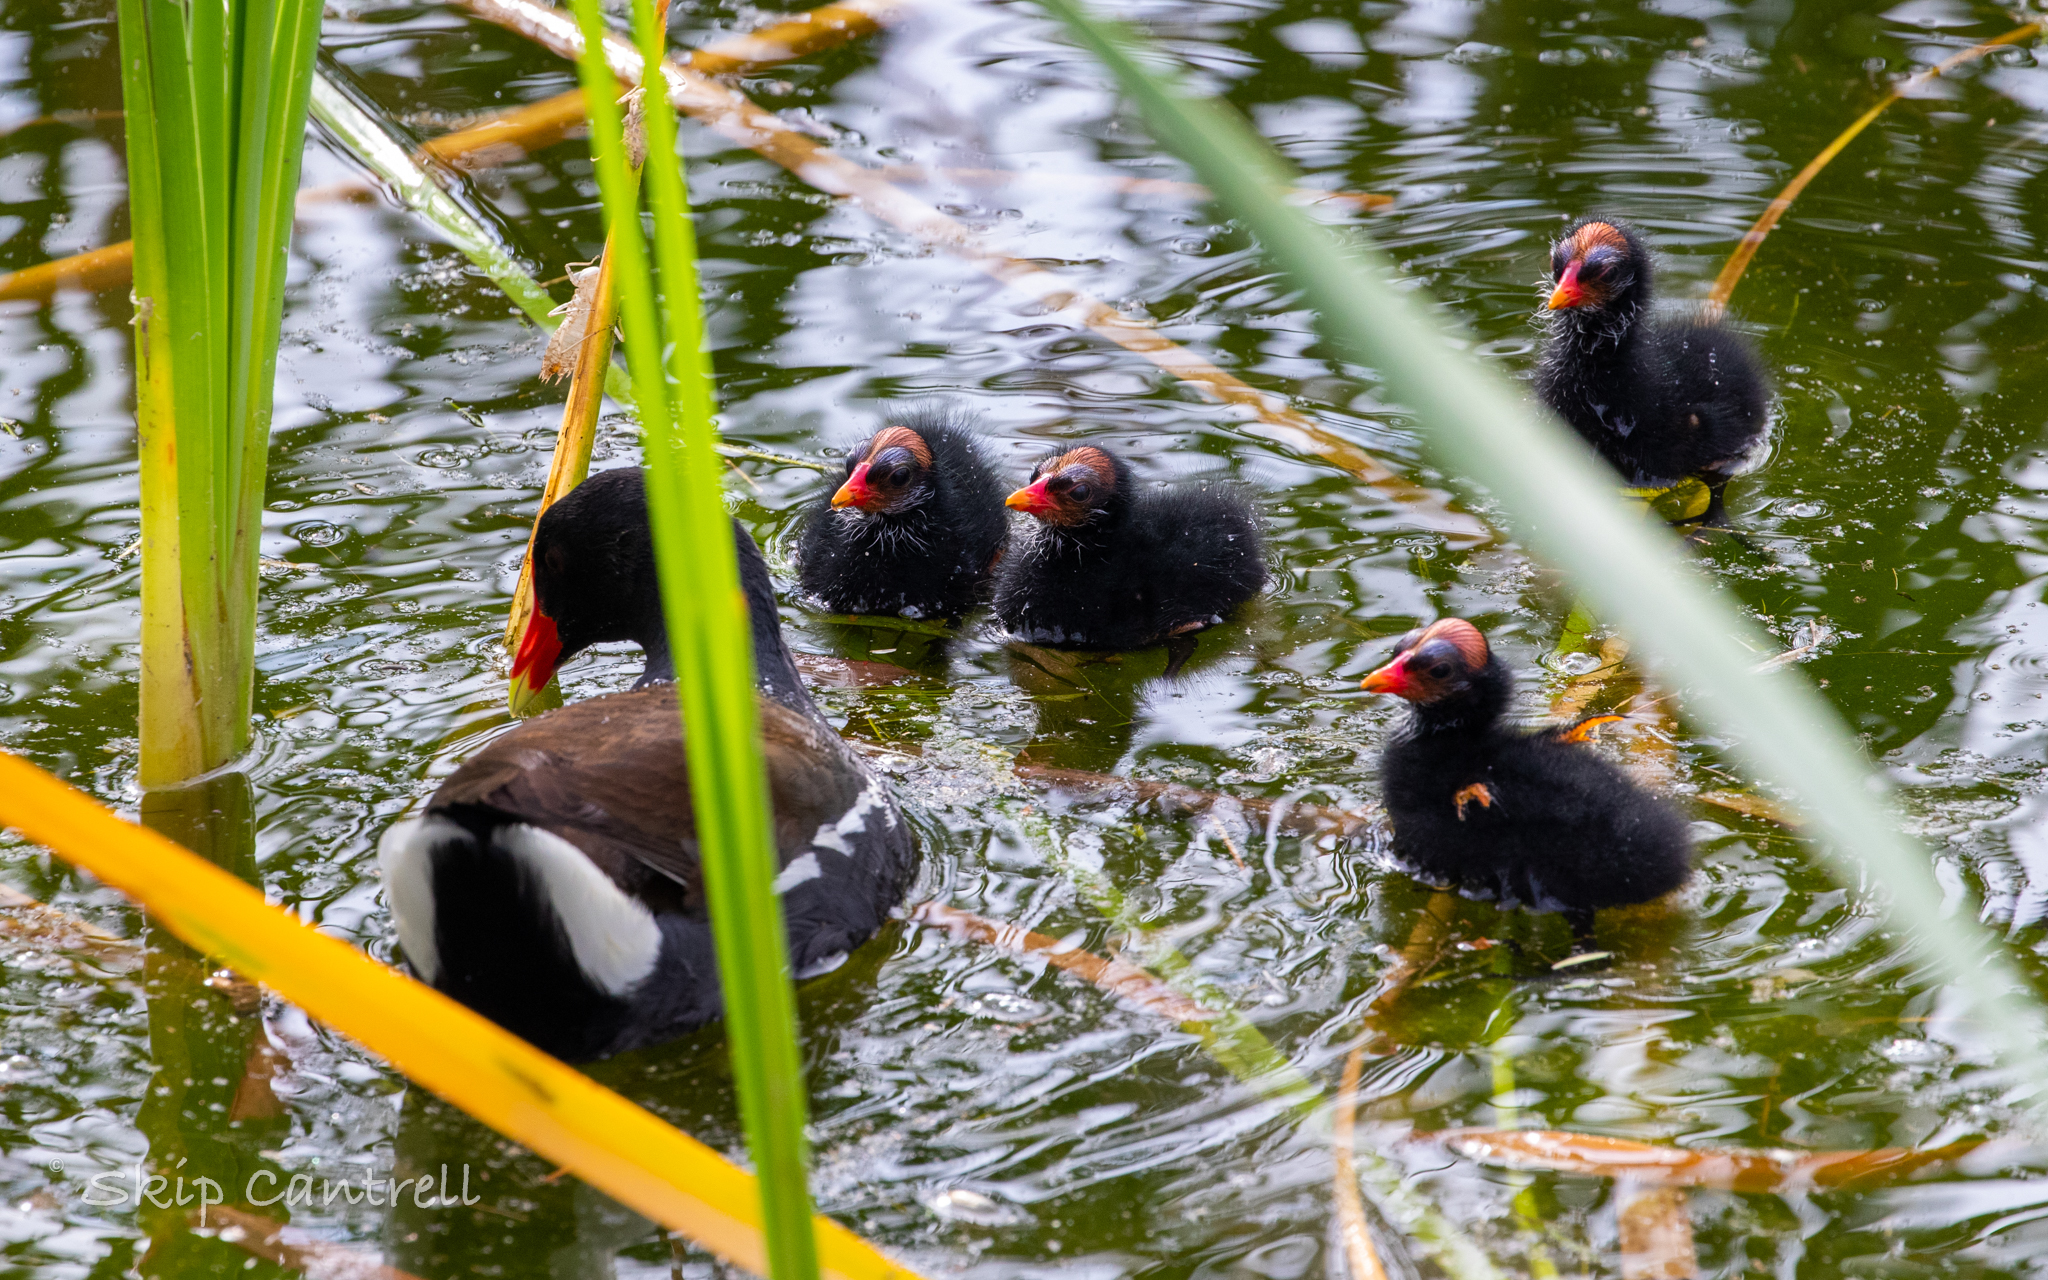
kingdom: Animalia
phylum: Chordata
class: Aves
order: Gruiformes
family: Rallidae
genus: Gallinula
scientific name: Gallinula chloropus
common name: Common moorhen
